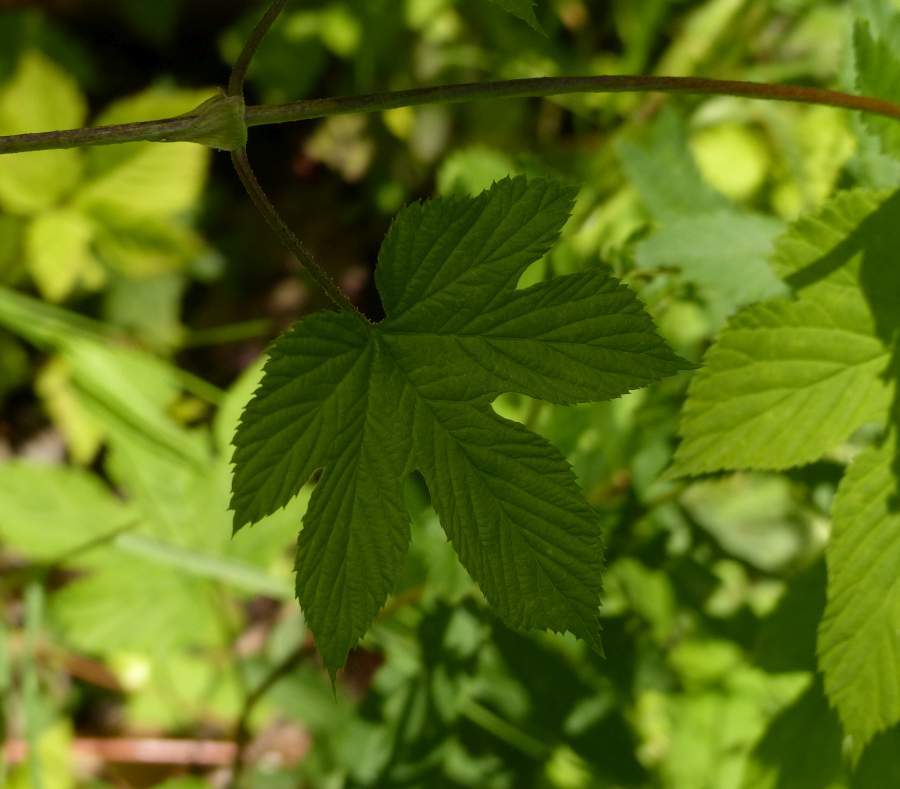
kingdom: Plantae
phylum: Tracheophyta
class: Magnoliopsida
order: Rosales
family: Cannabaceae
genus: Humulus
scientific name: Humulus lupulus
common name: Hop
